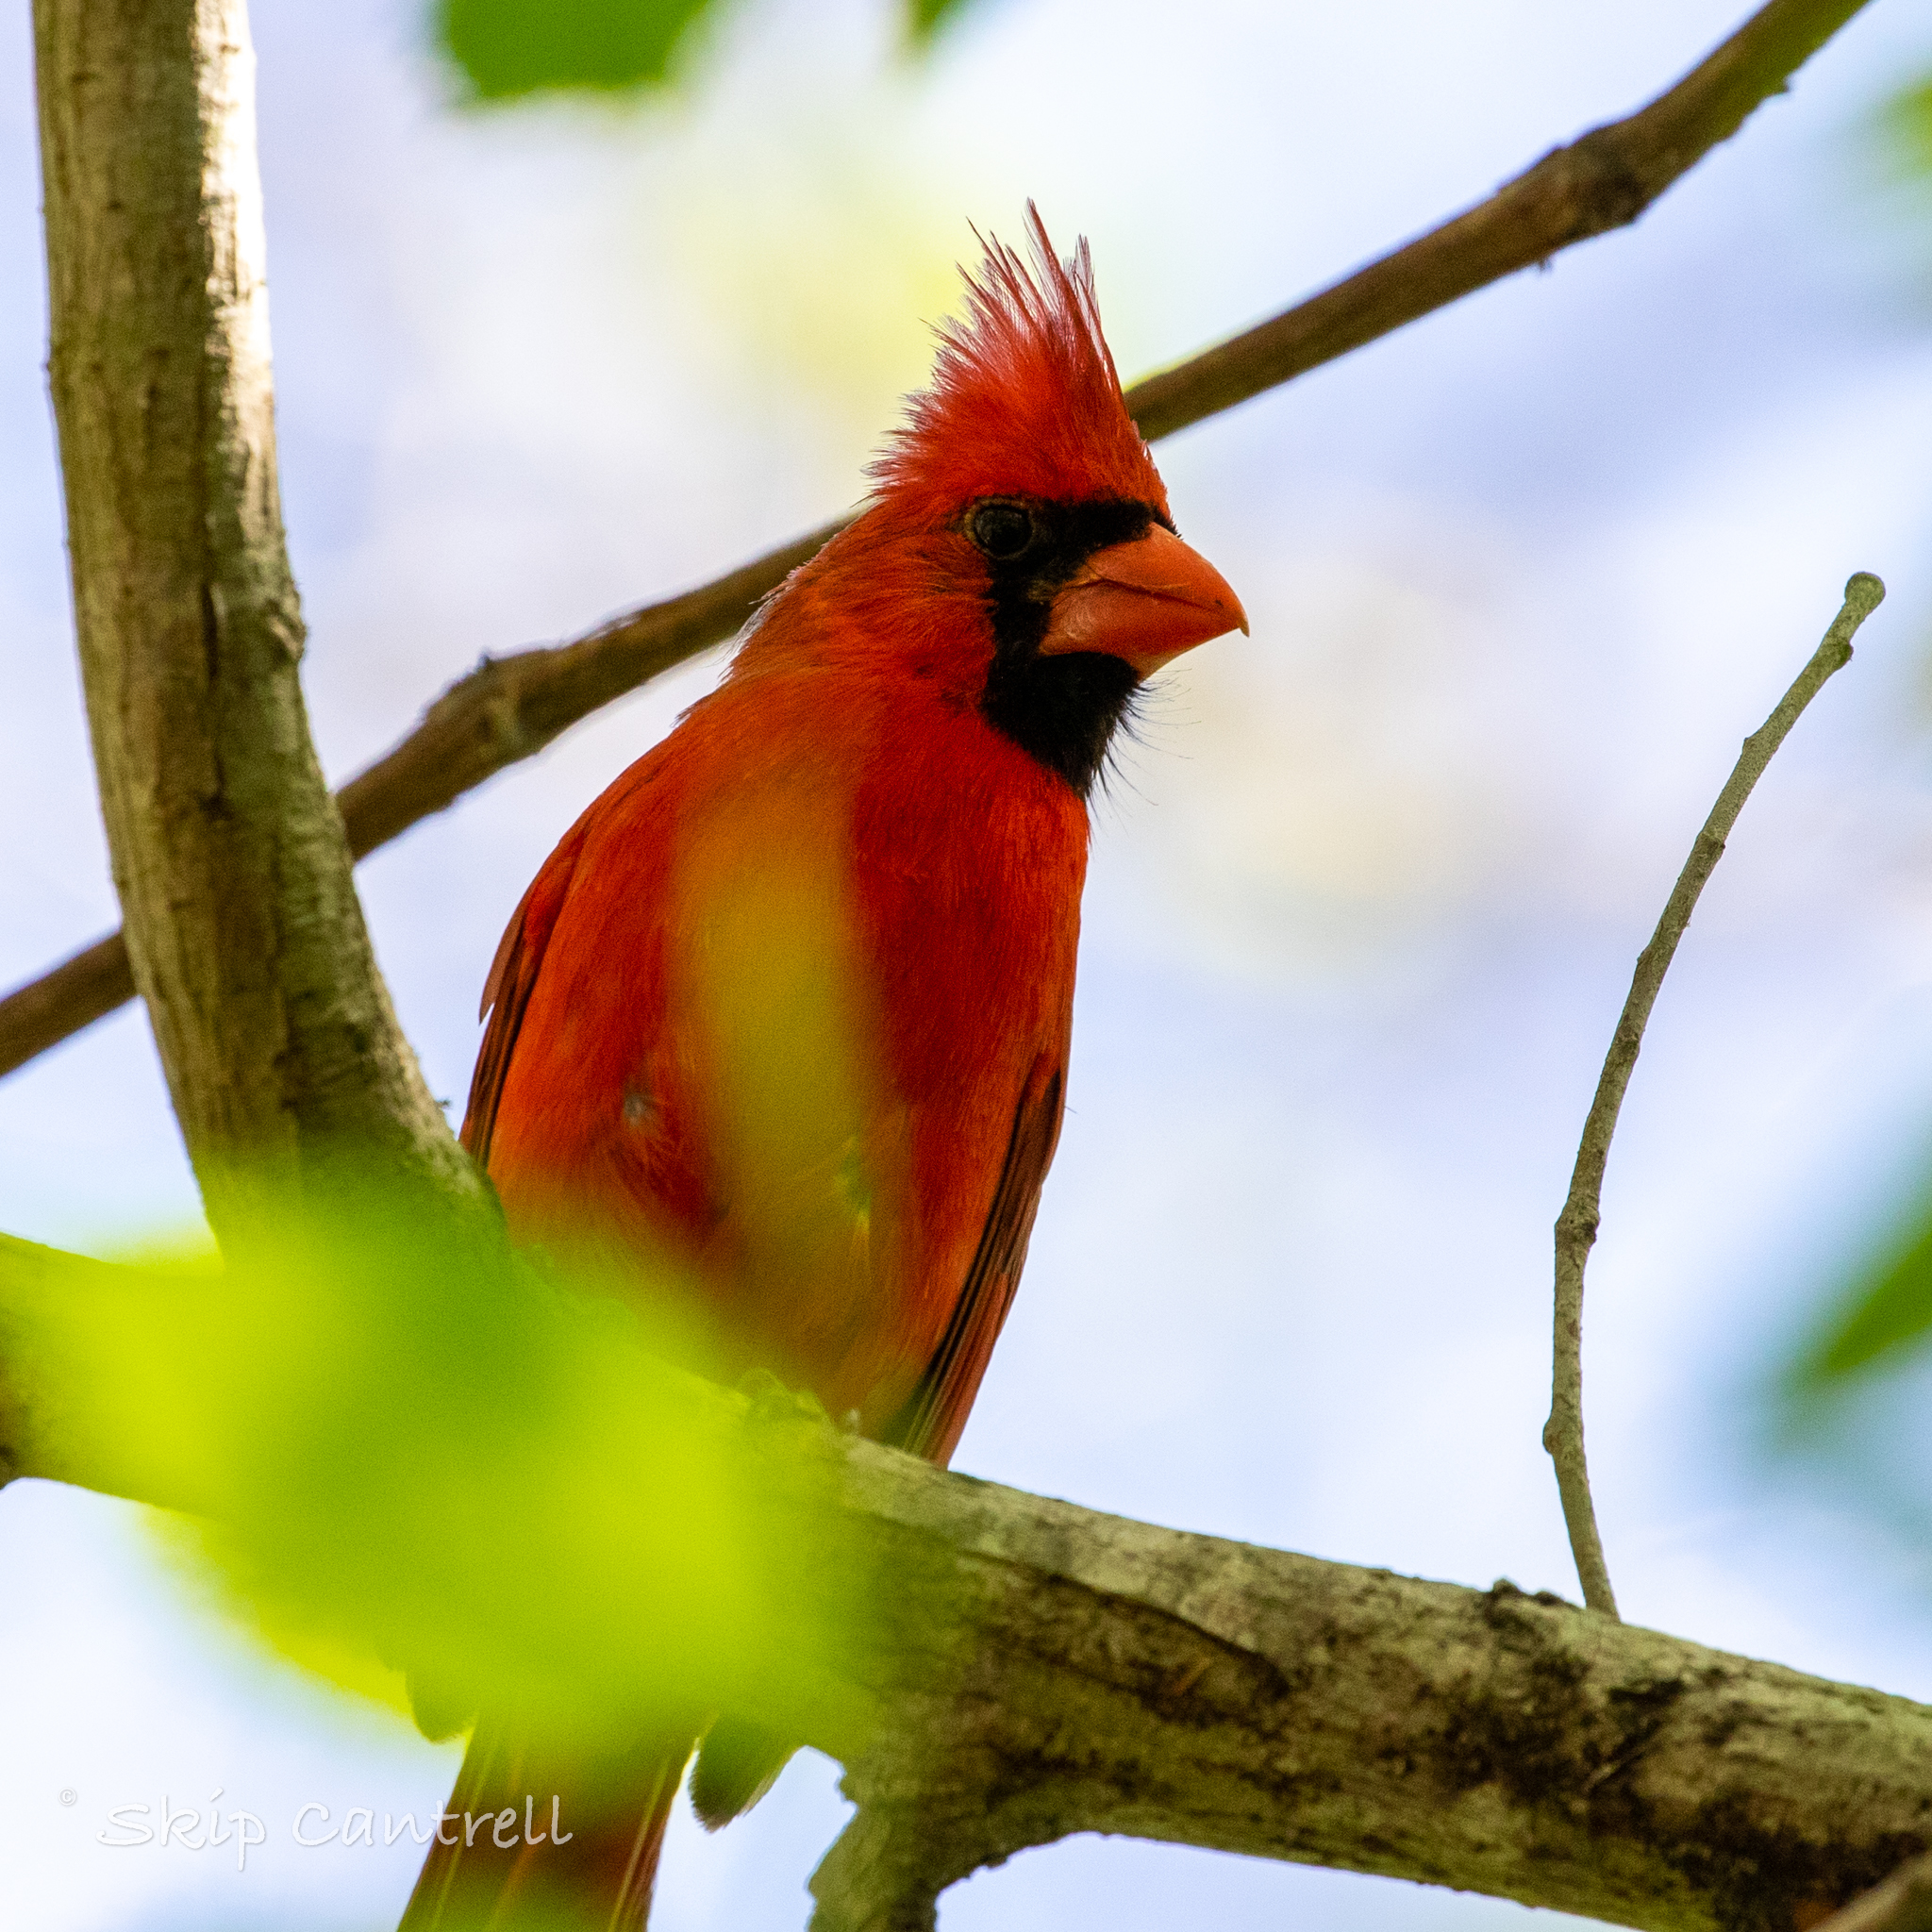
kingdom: Animalia
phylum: Chordata
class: Aves
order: Passeriformes
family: Cardinalidae
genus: Cardinalis
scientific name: Cardinalis cardinalis
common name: Northern cardinal
